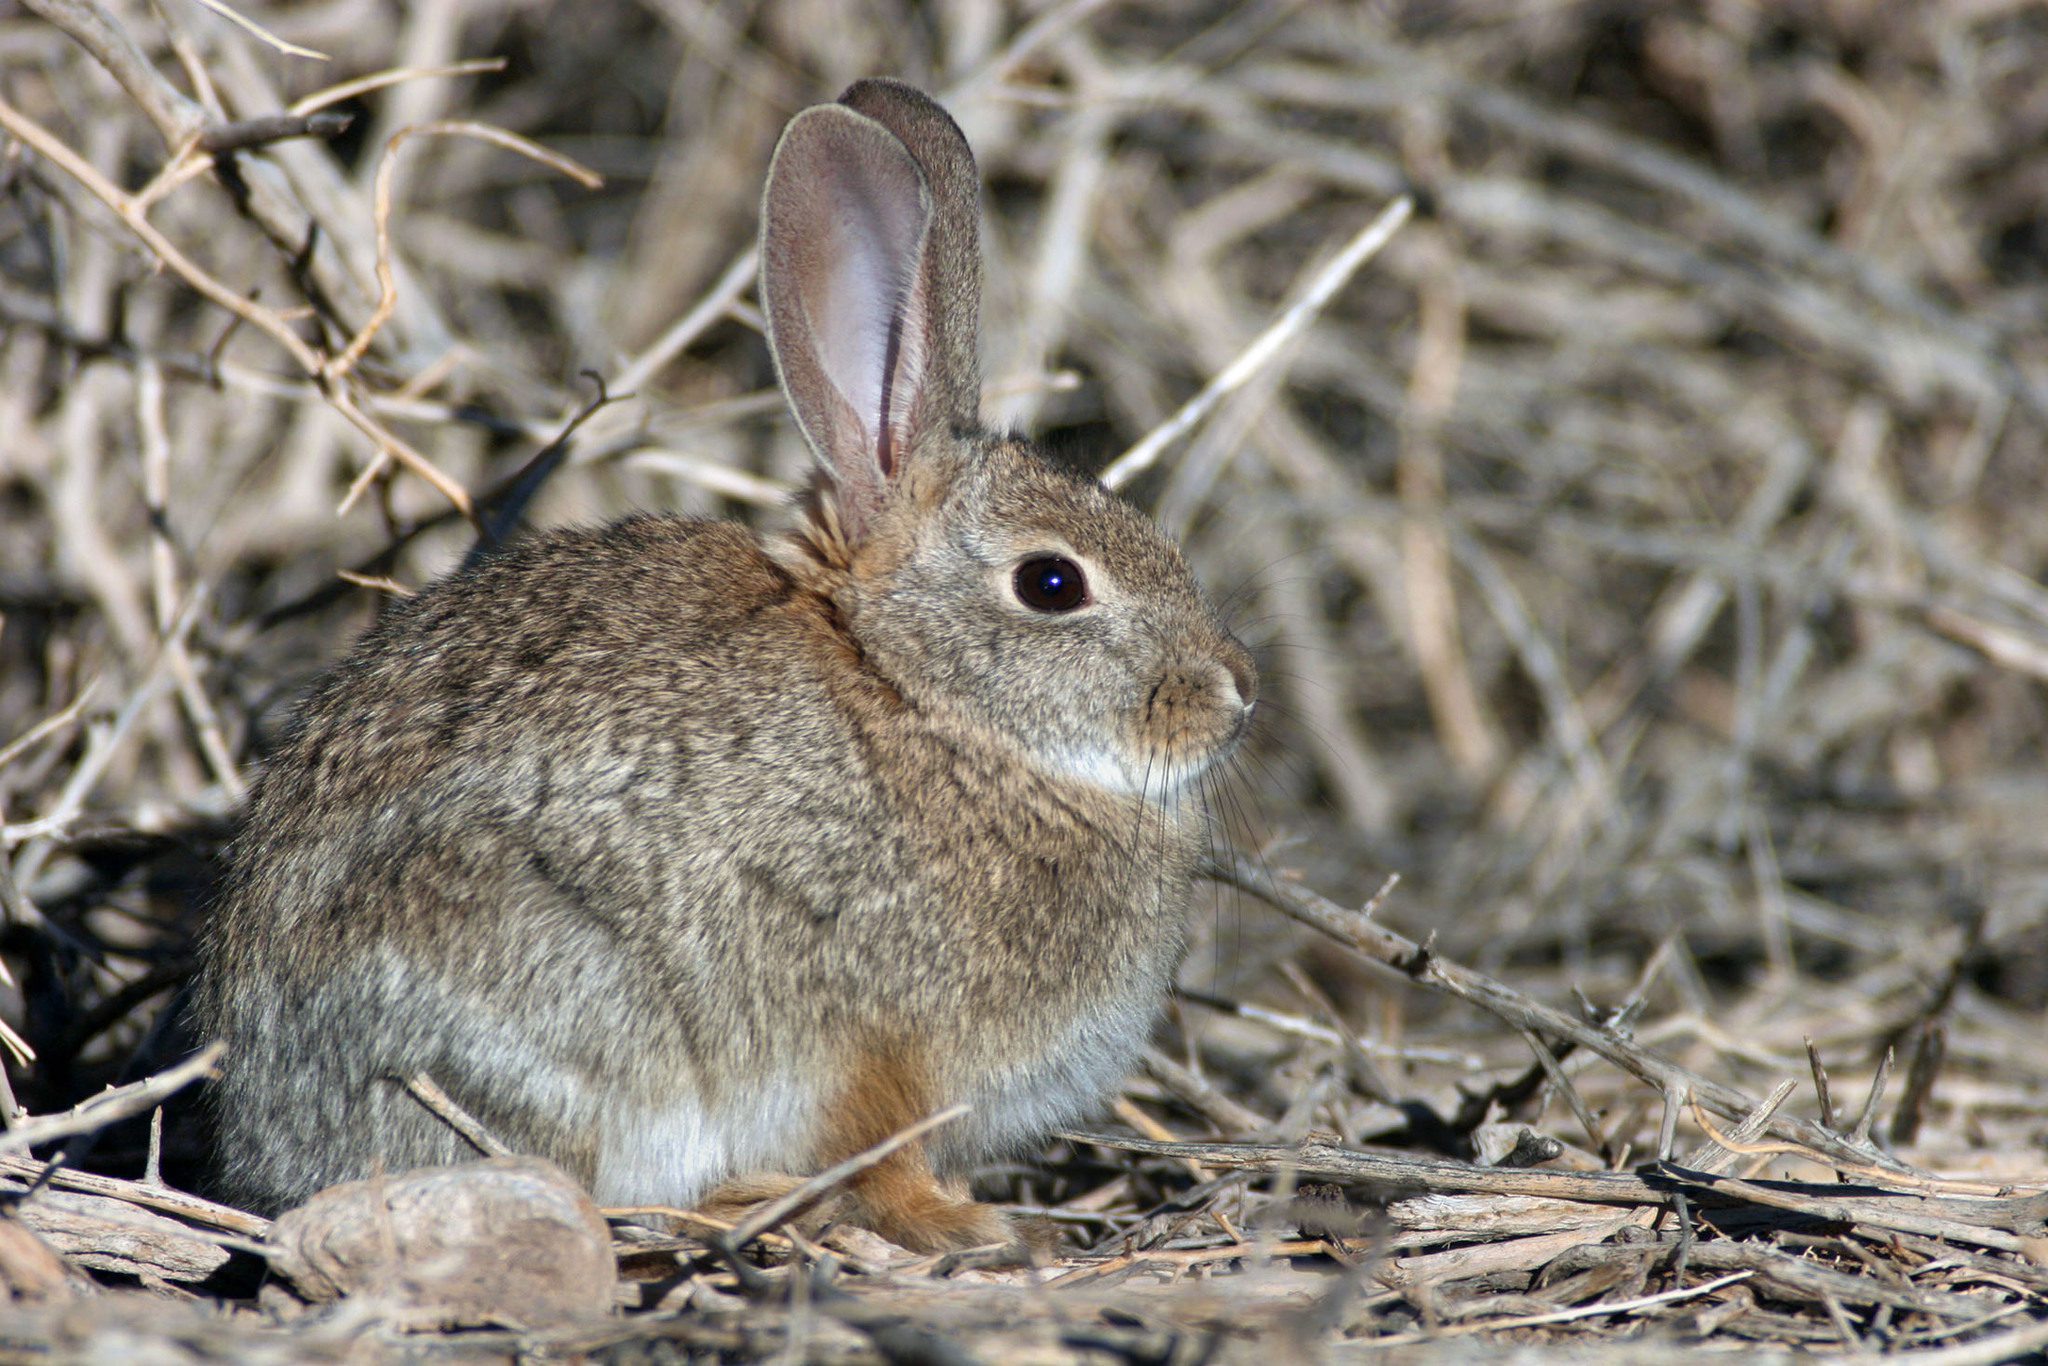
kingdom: Animalia
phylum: Chordata
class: Mammalia
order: Lagomorpha
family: Leporidae
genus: Sylvilagus
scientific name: Sylvilagus audubonii
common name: Desert cottontail
